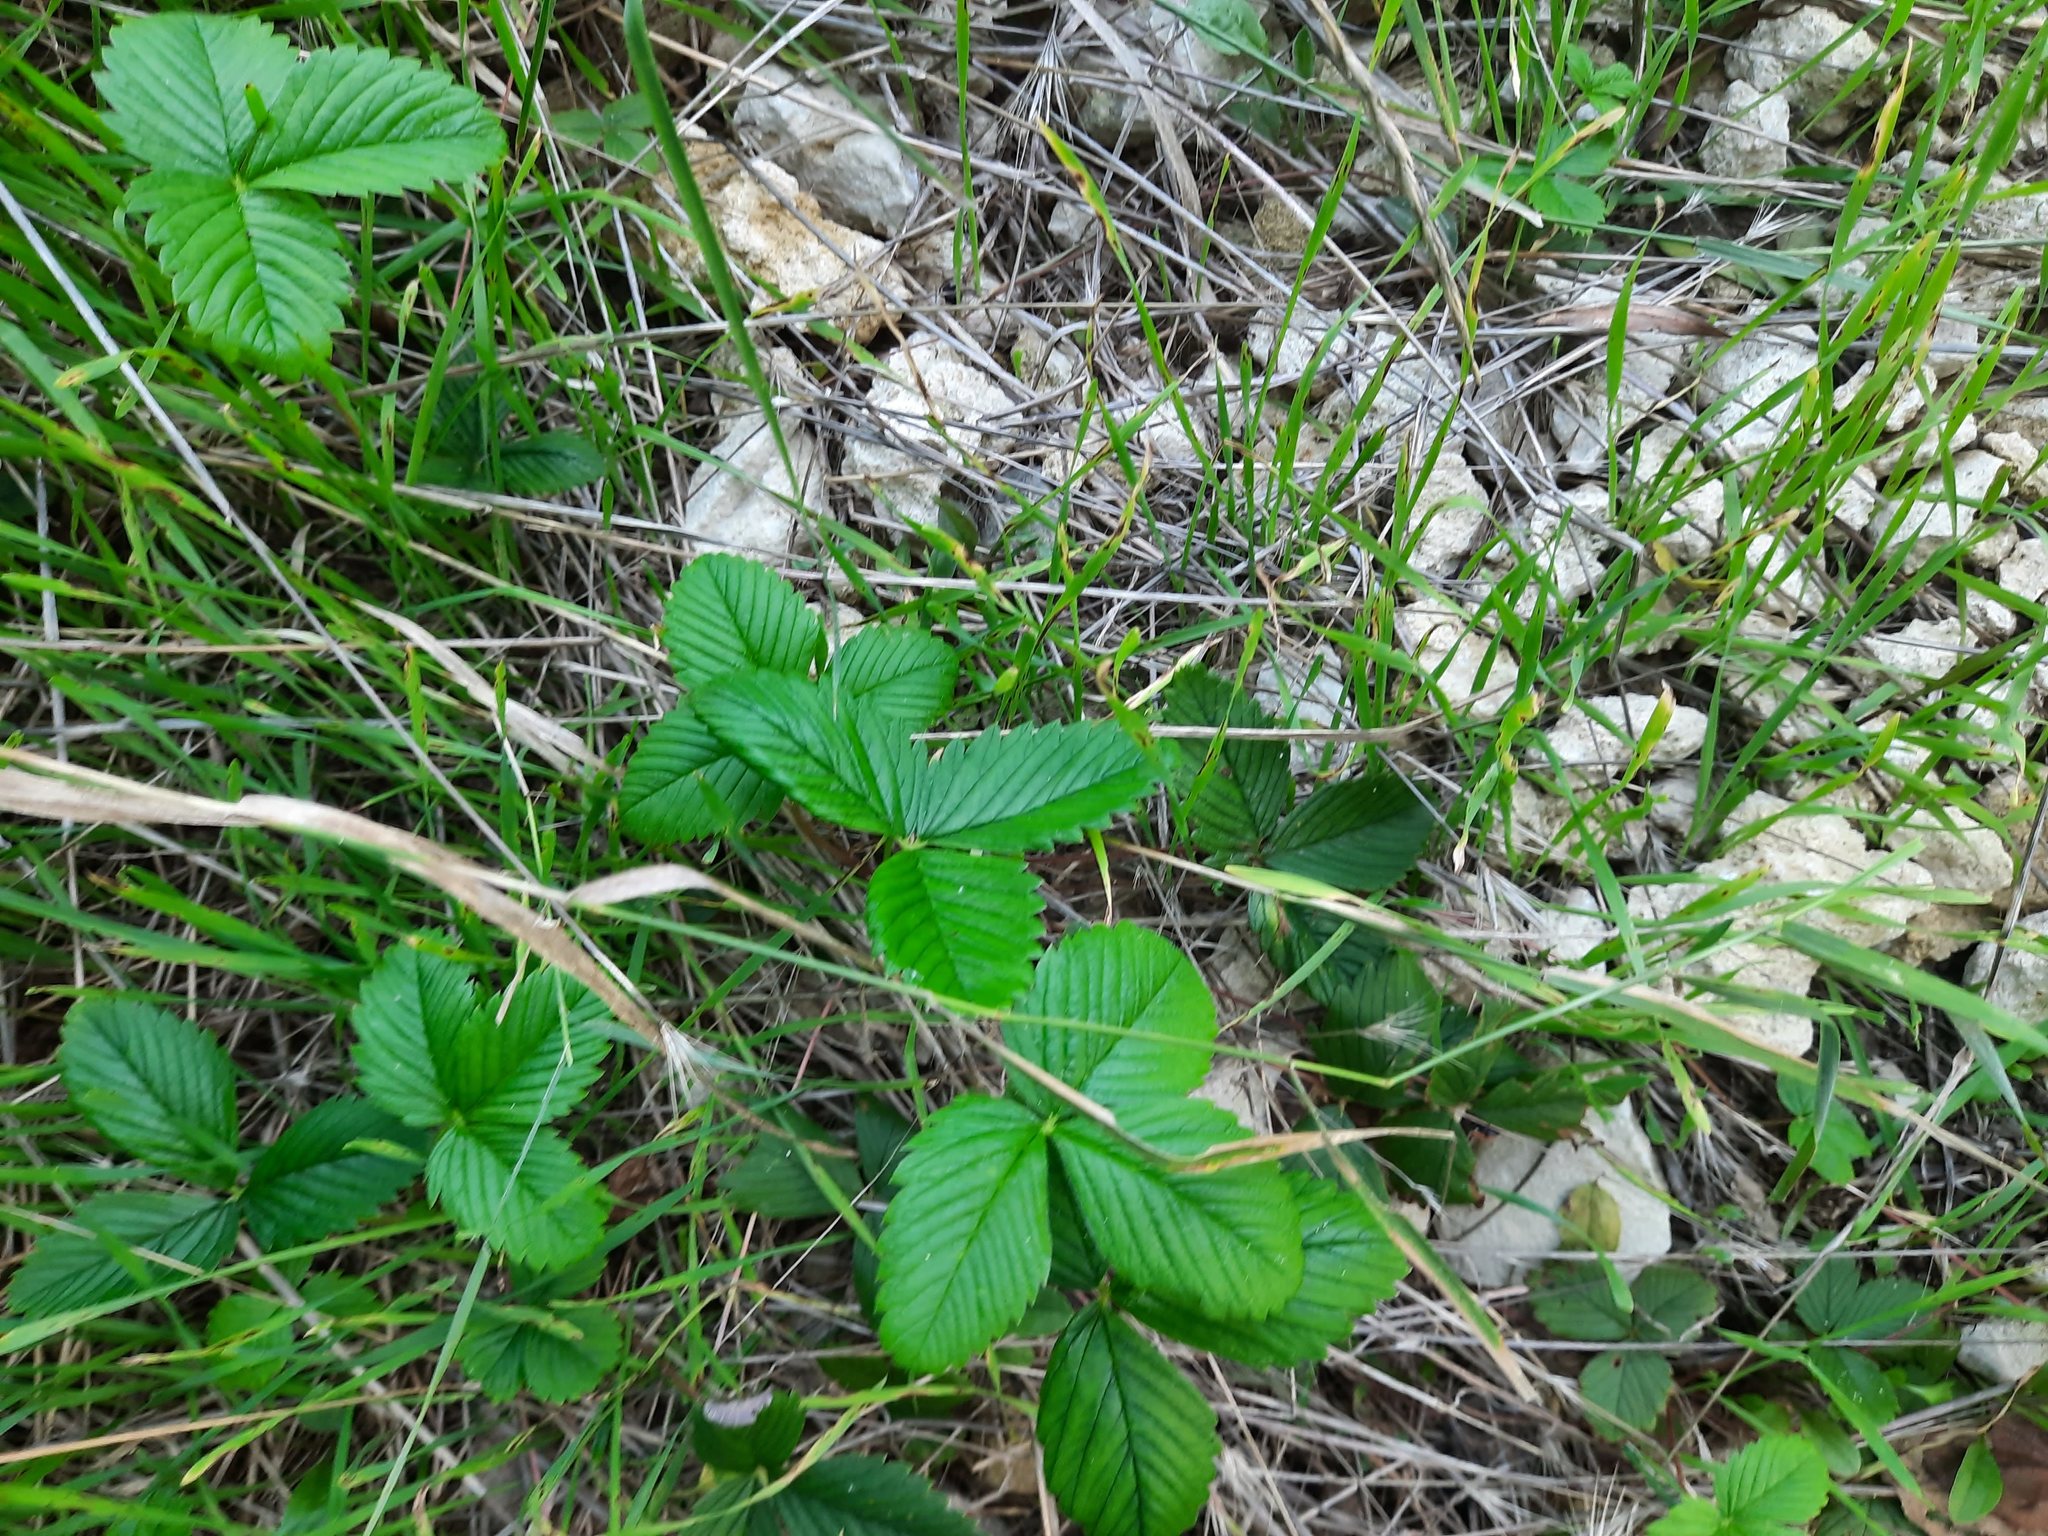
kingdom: Plantae
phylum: Tracheophyta
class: Magnoliopsida
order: Rosales
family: Rosaceae
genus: Fragaria
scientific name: Fragaria viridis
